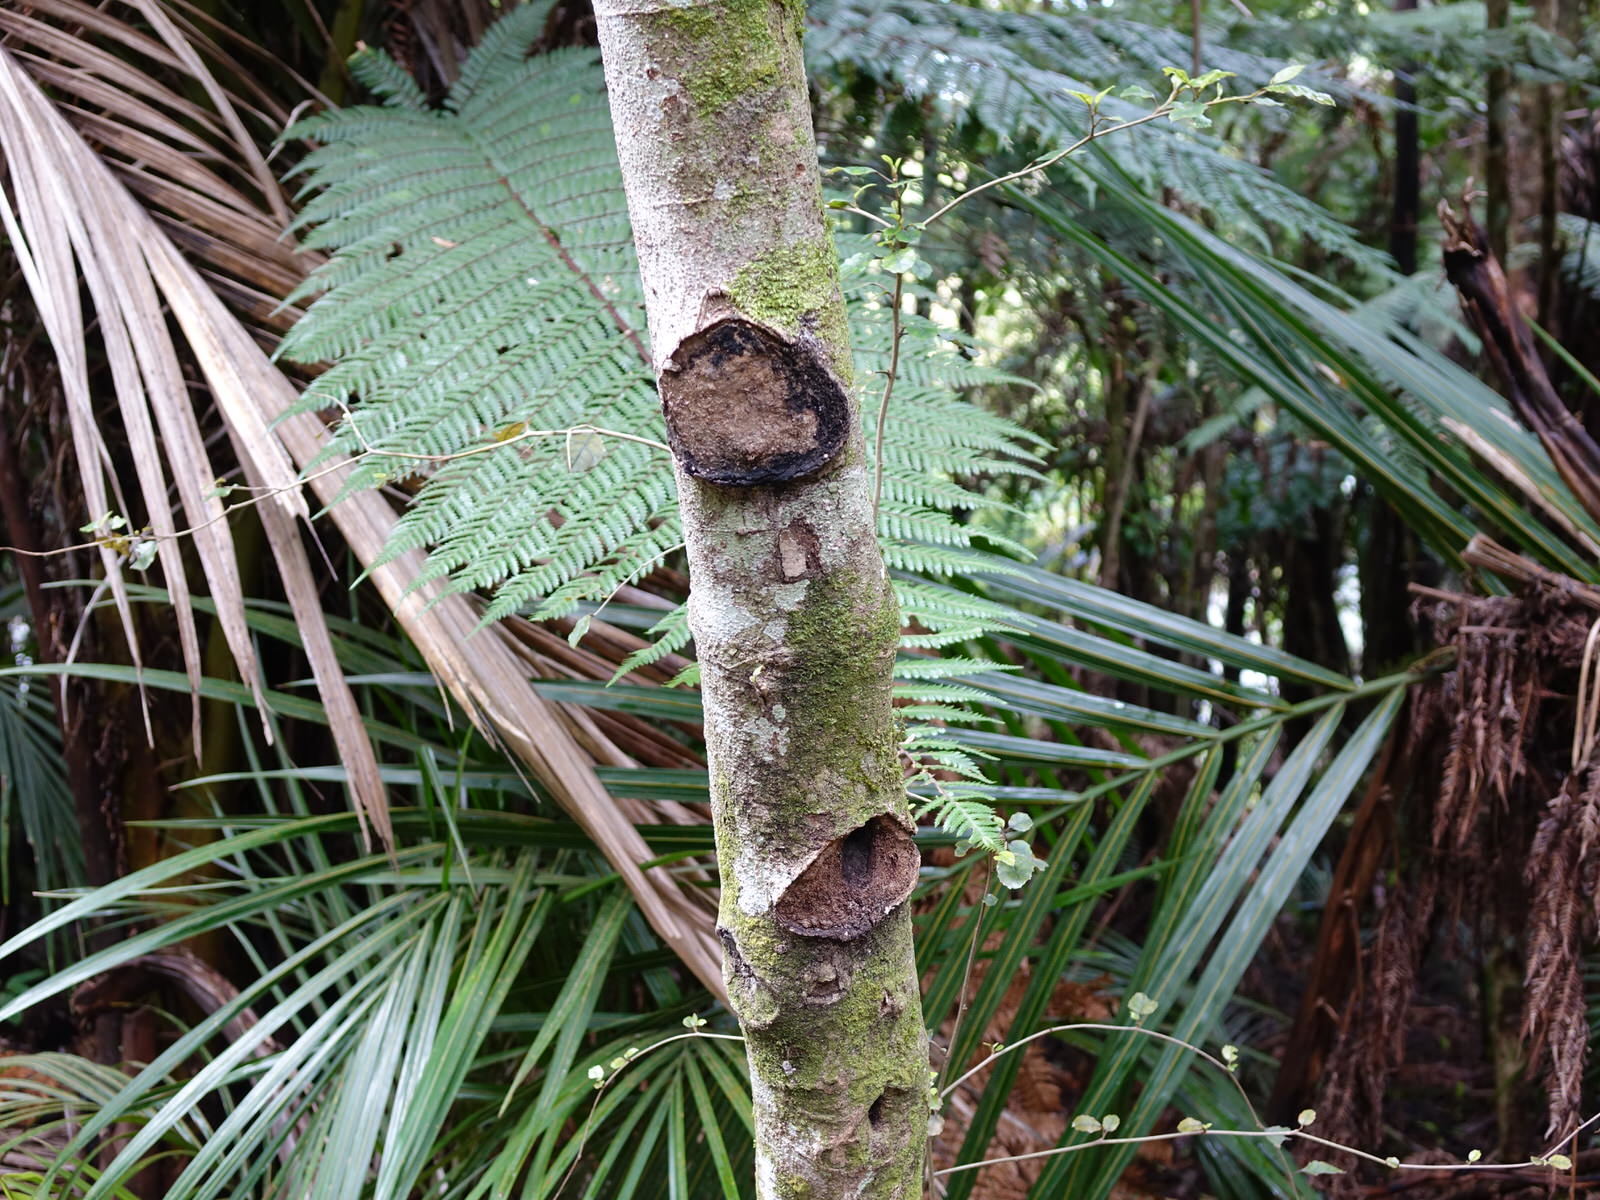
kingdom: Animalia
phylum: Arthropoda
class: Insecta
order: Lepidoptera
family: Hepialidae
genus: Aenetus
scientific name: Aenetus virescens
